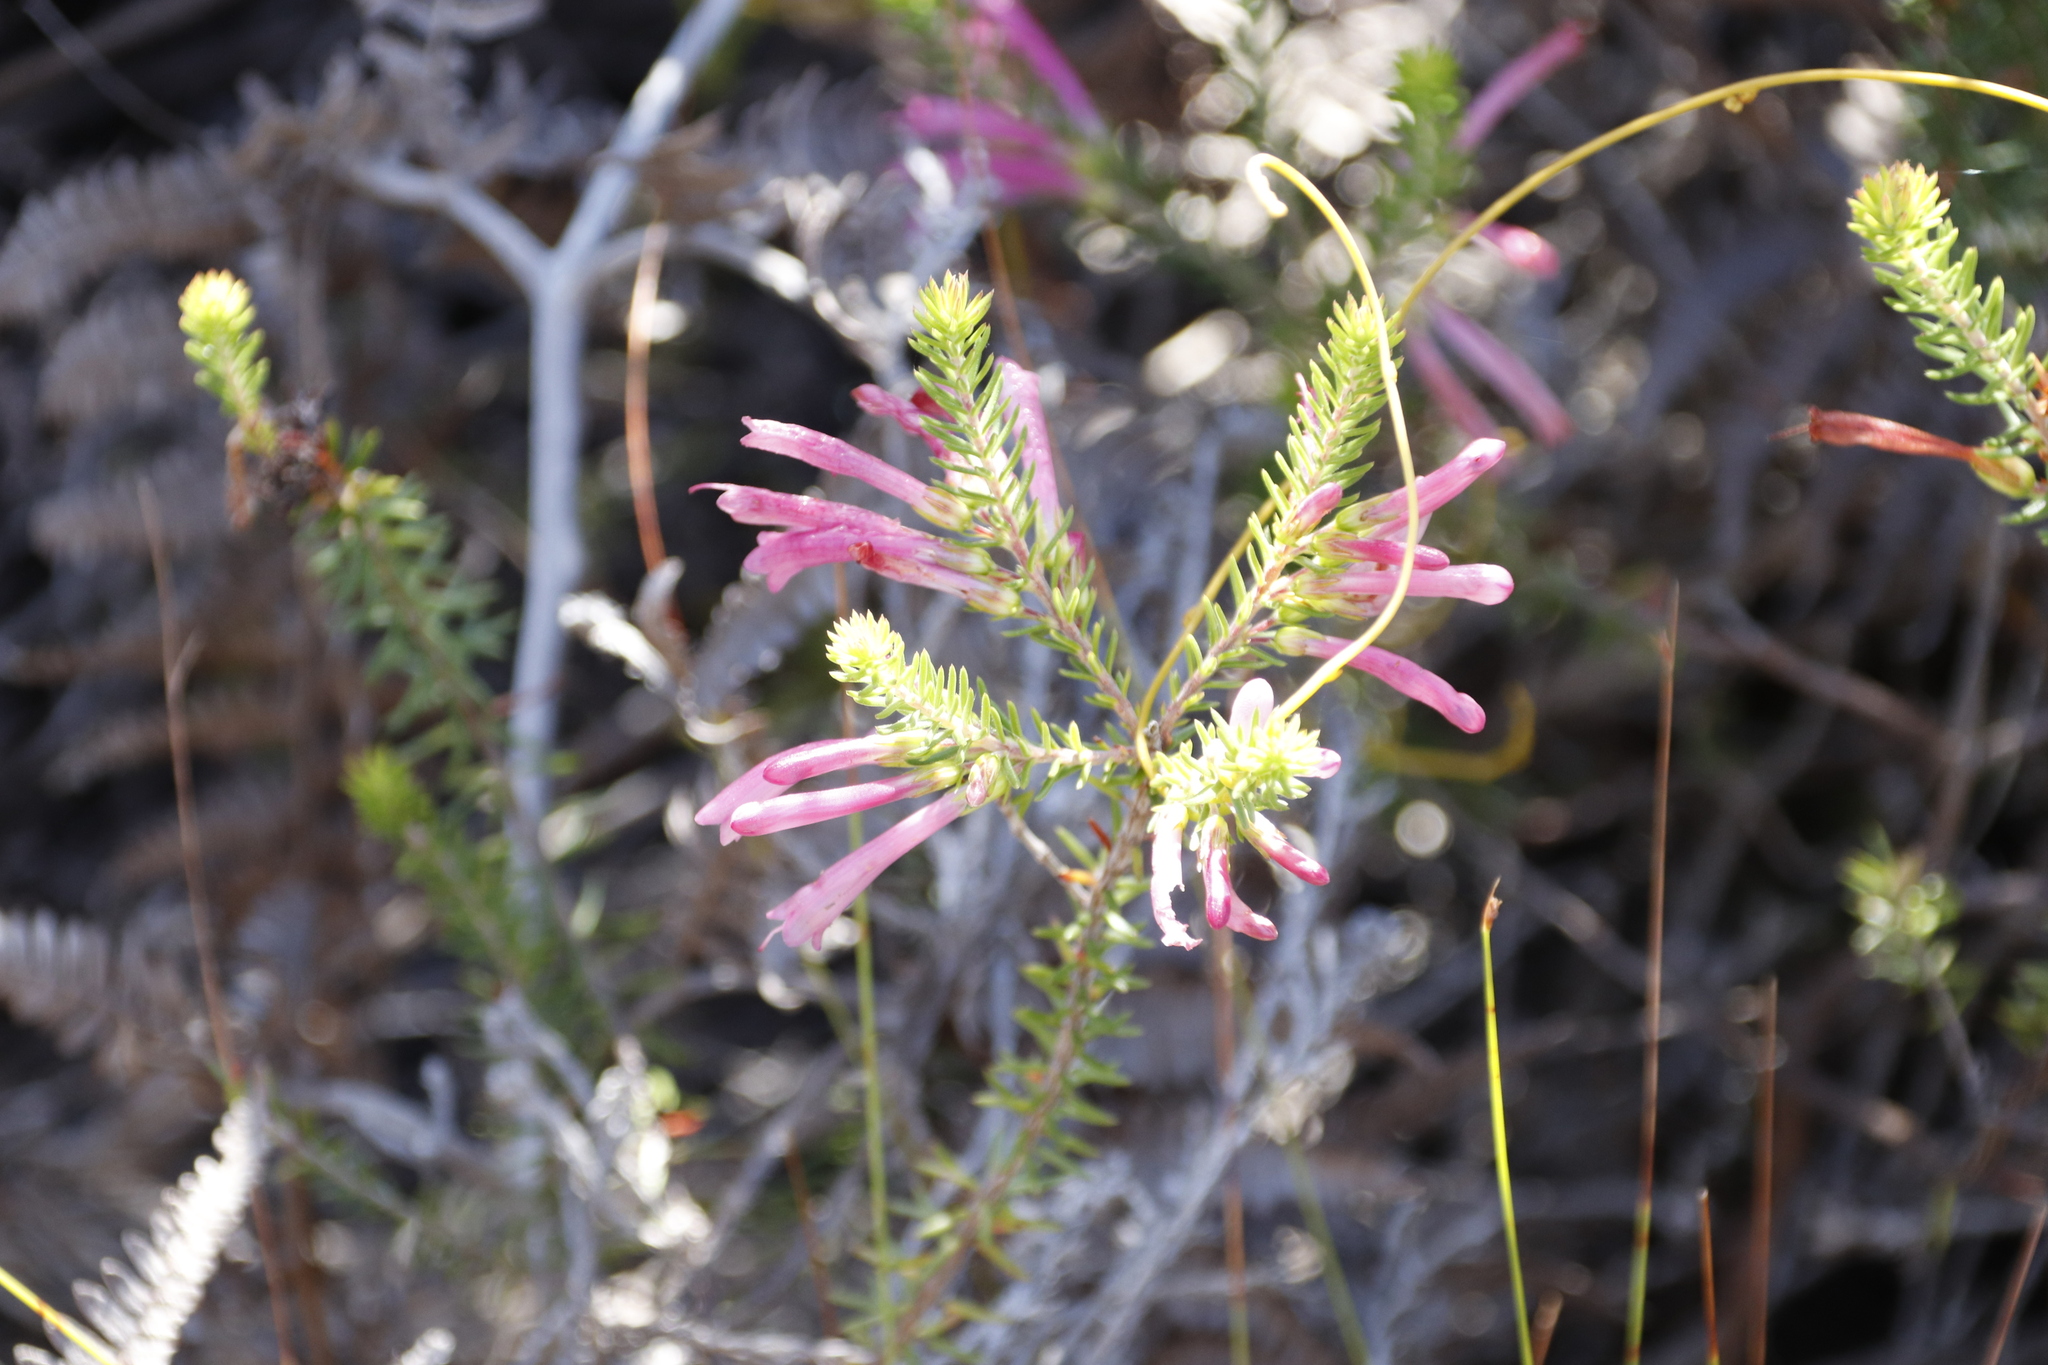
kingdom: Plantae
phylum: Tracheophyta
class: Magnoliopsida
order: Ericales
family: Ericaceae
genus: Erica
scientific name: Erica abietina
